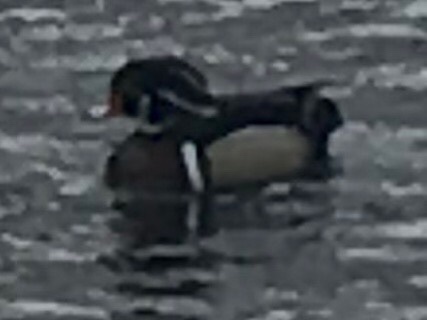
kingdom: Animalia
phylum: Chordata
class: Aves
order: Anseriformes
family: Anatidae
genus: Aix
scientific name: Aix sponsa
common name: Wood duck
